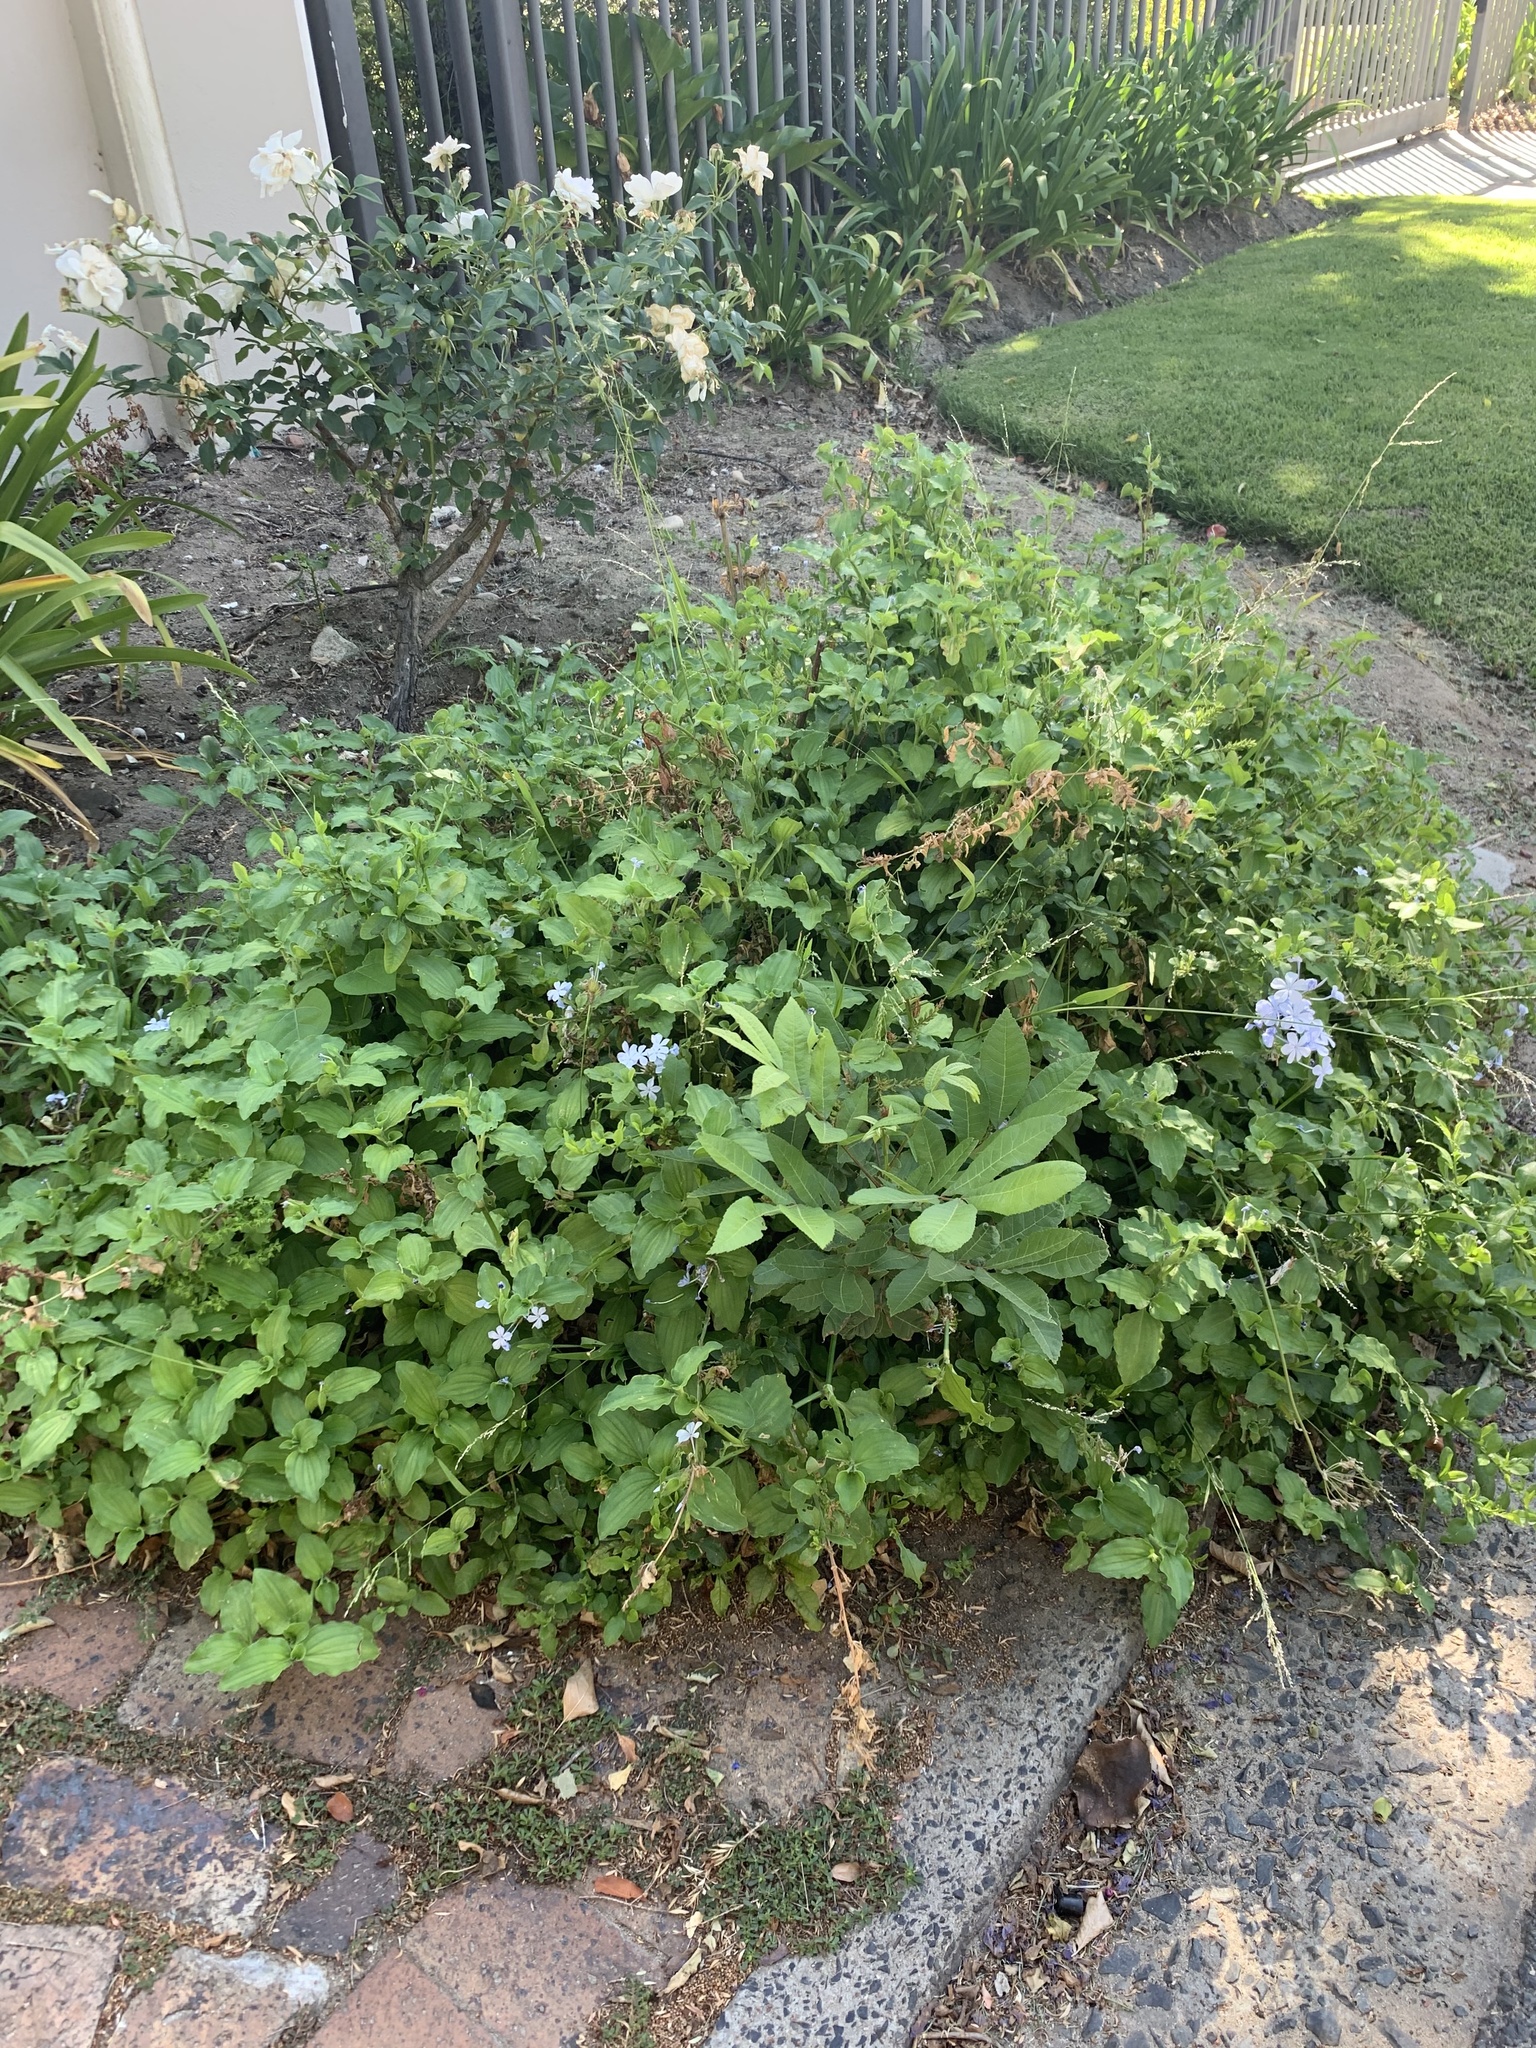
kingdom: Plantae
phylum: Tracheophyta
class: Magnoliopsida
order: Fagales
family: Juglandaceae
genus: Carya
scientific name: Carya illinoinensis
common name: Pecan
